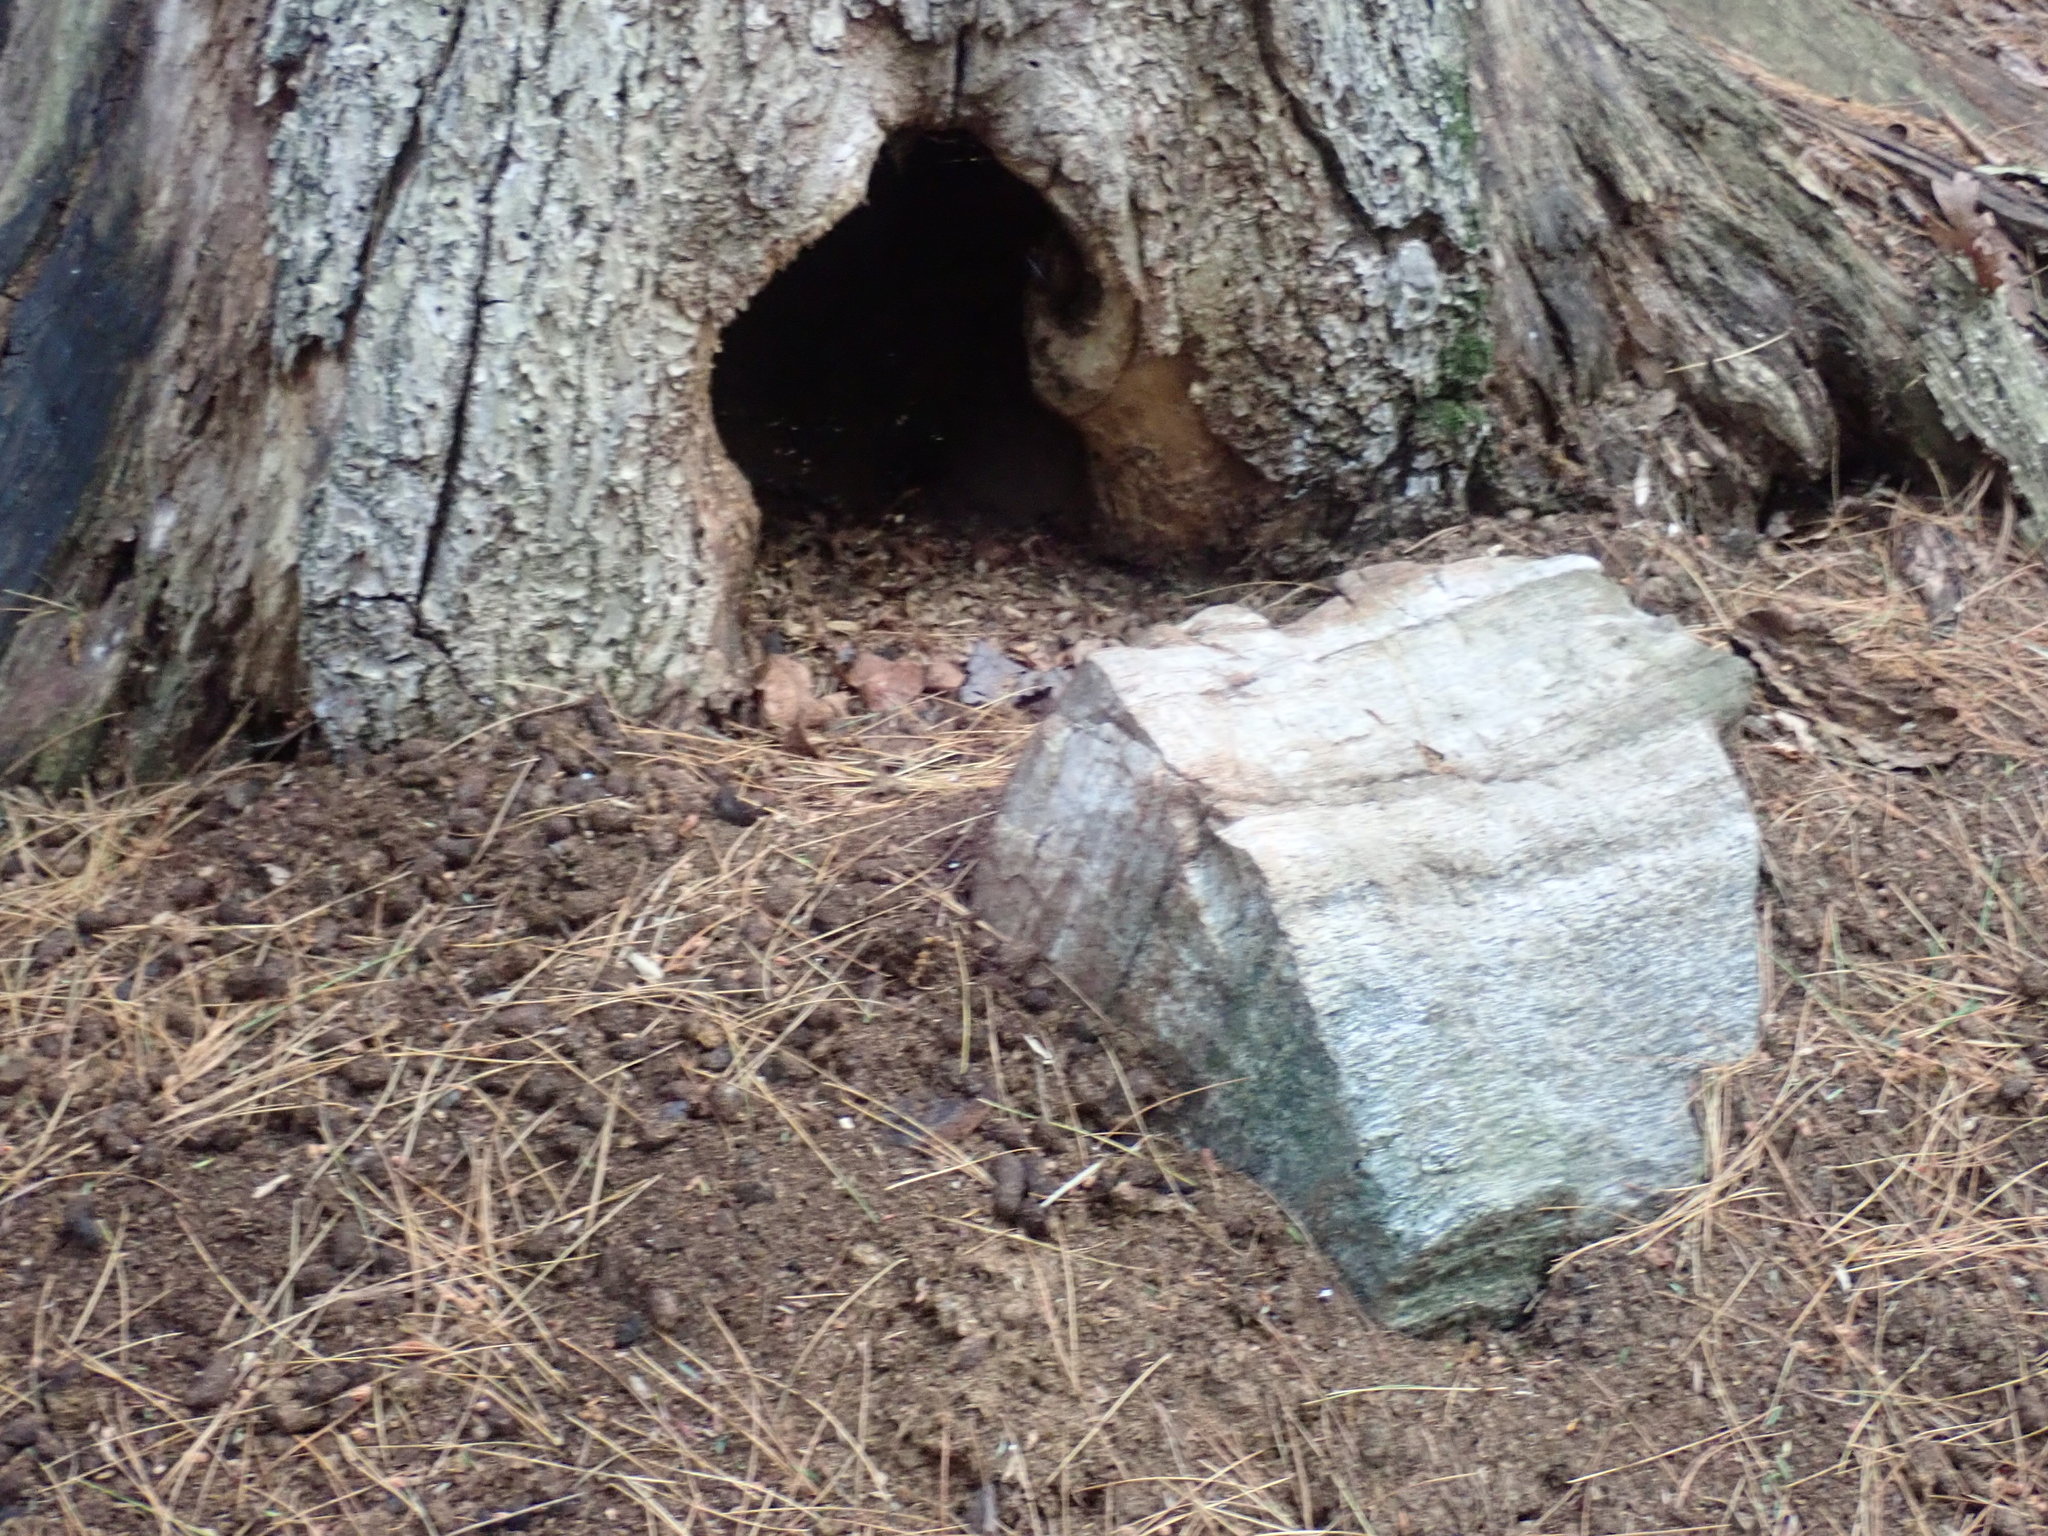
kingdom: Animalia
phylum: Chordata
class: Mammalia
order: Rodentia
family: Erethizontidae
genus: Erethizon
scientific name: Erethizon dorsatus
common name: North american porcupine
